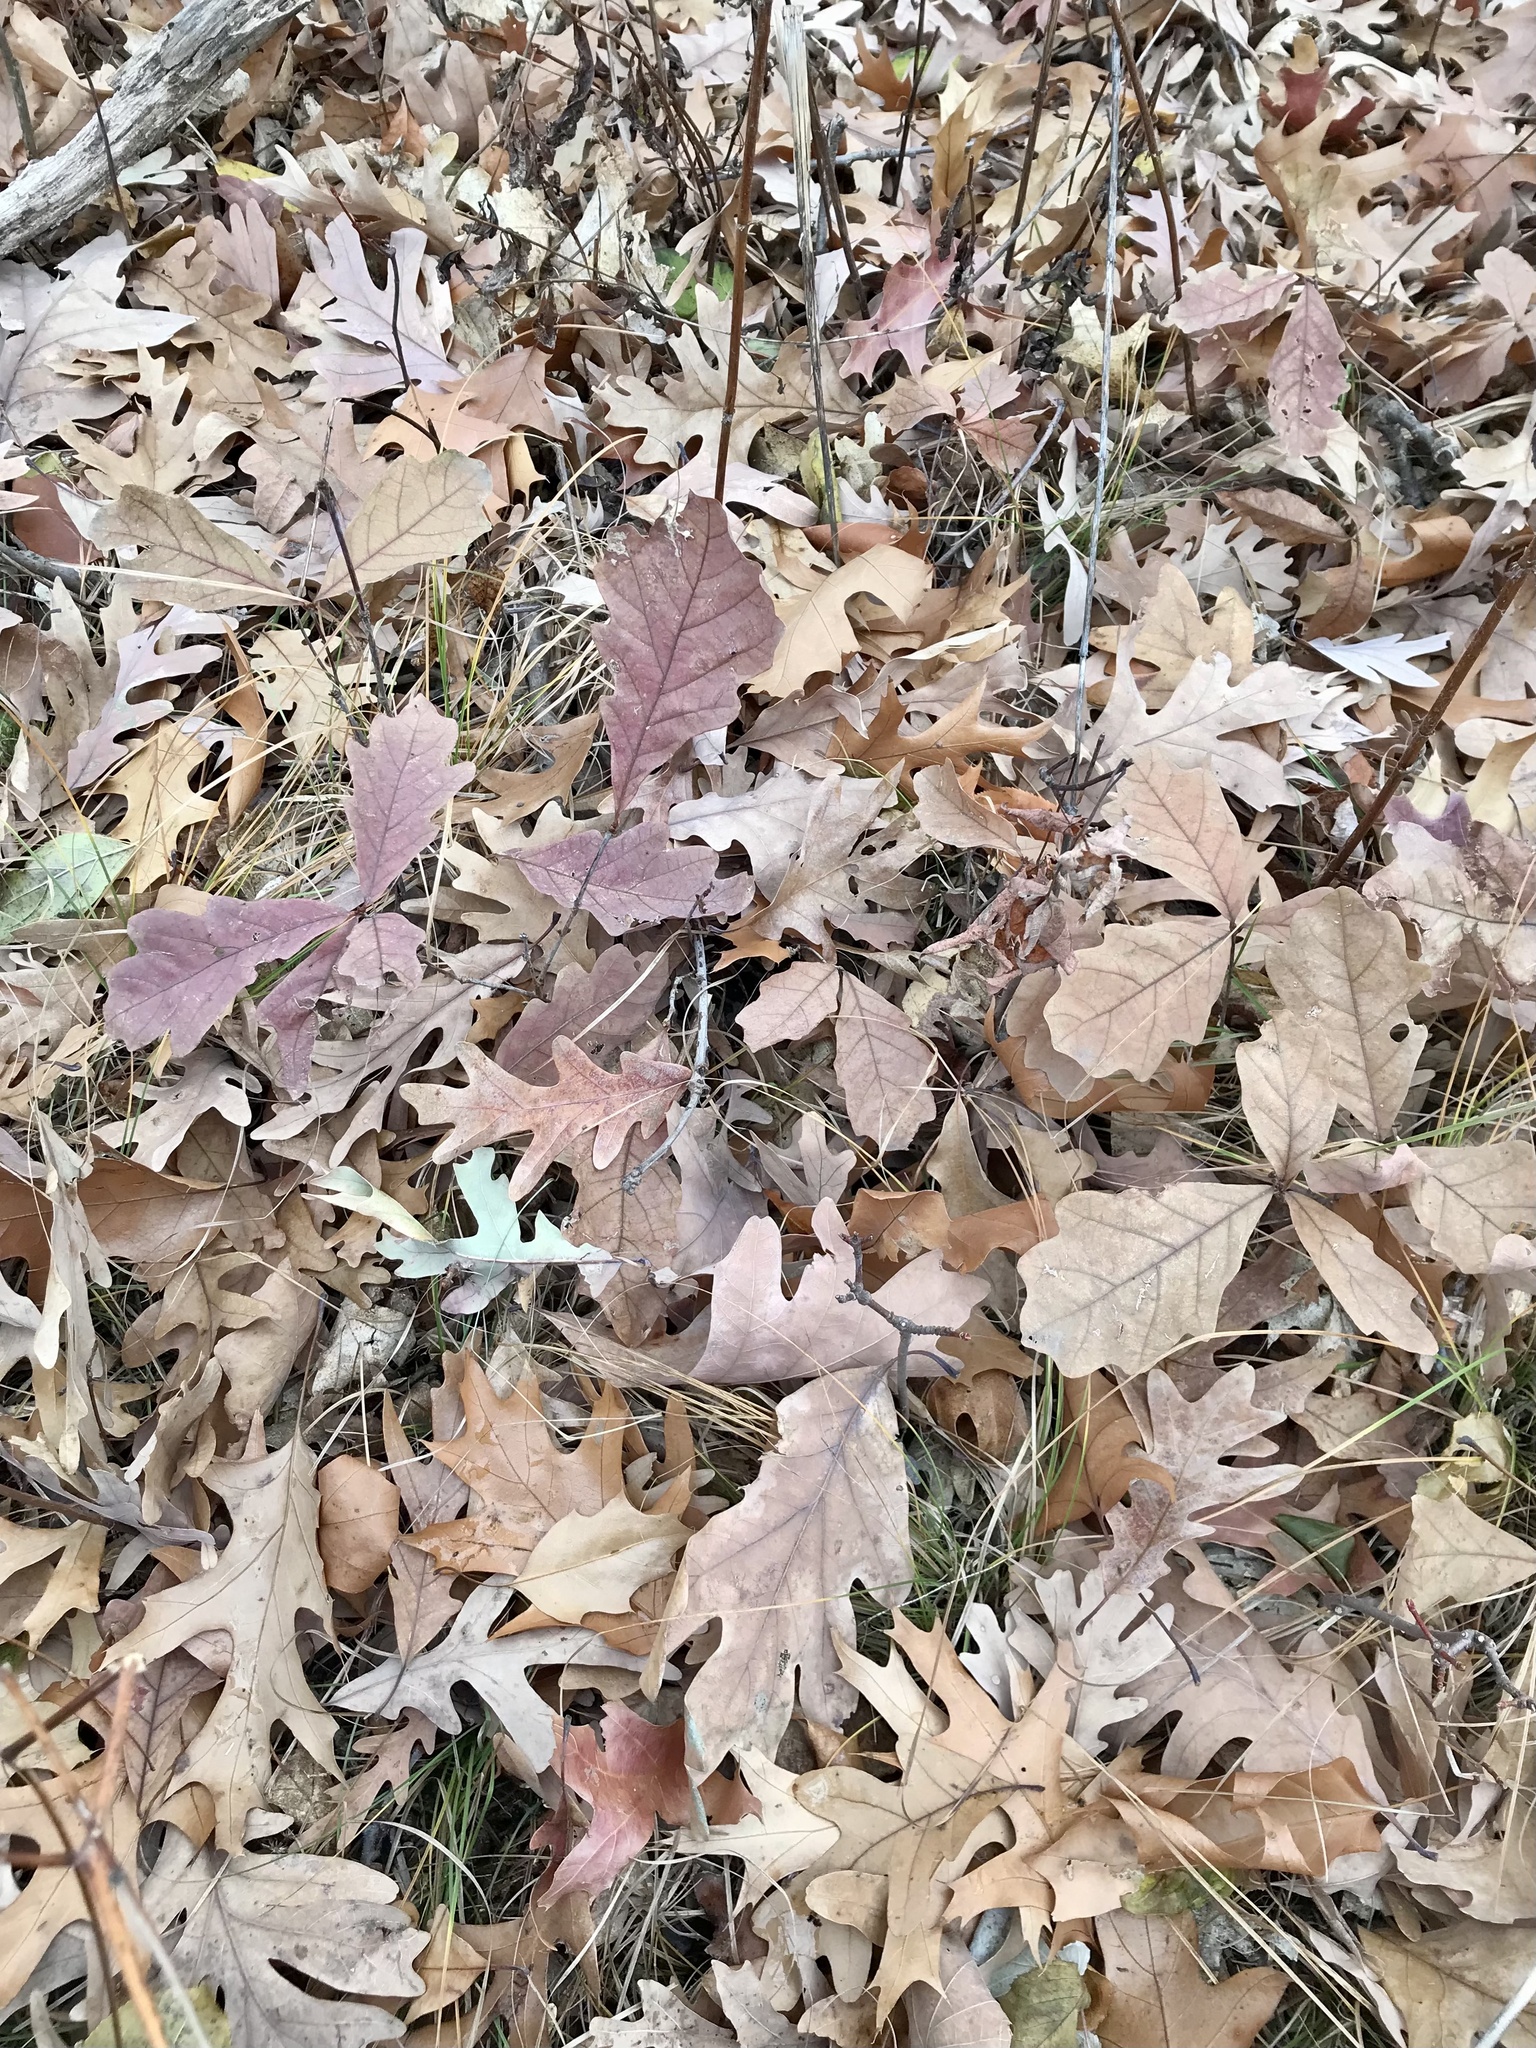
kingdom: Plantae
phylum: Tracheophyta
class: Magnoliopsida
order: Fagales
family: Fagaceae
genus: Quercus
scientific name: Quercus alba
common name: White oak
